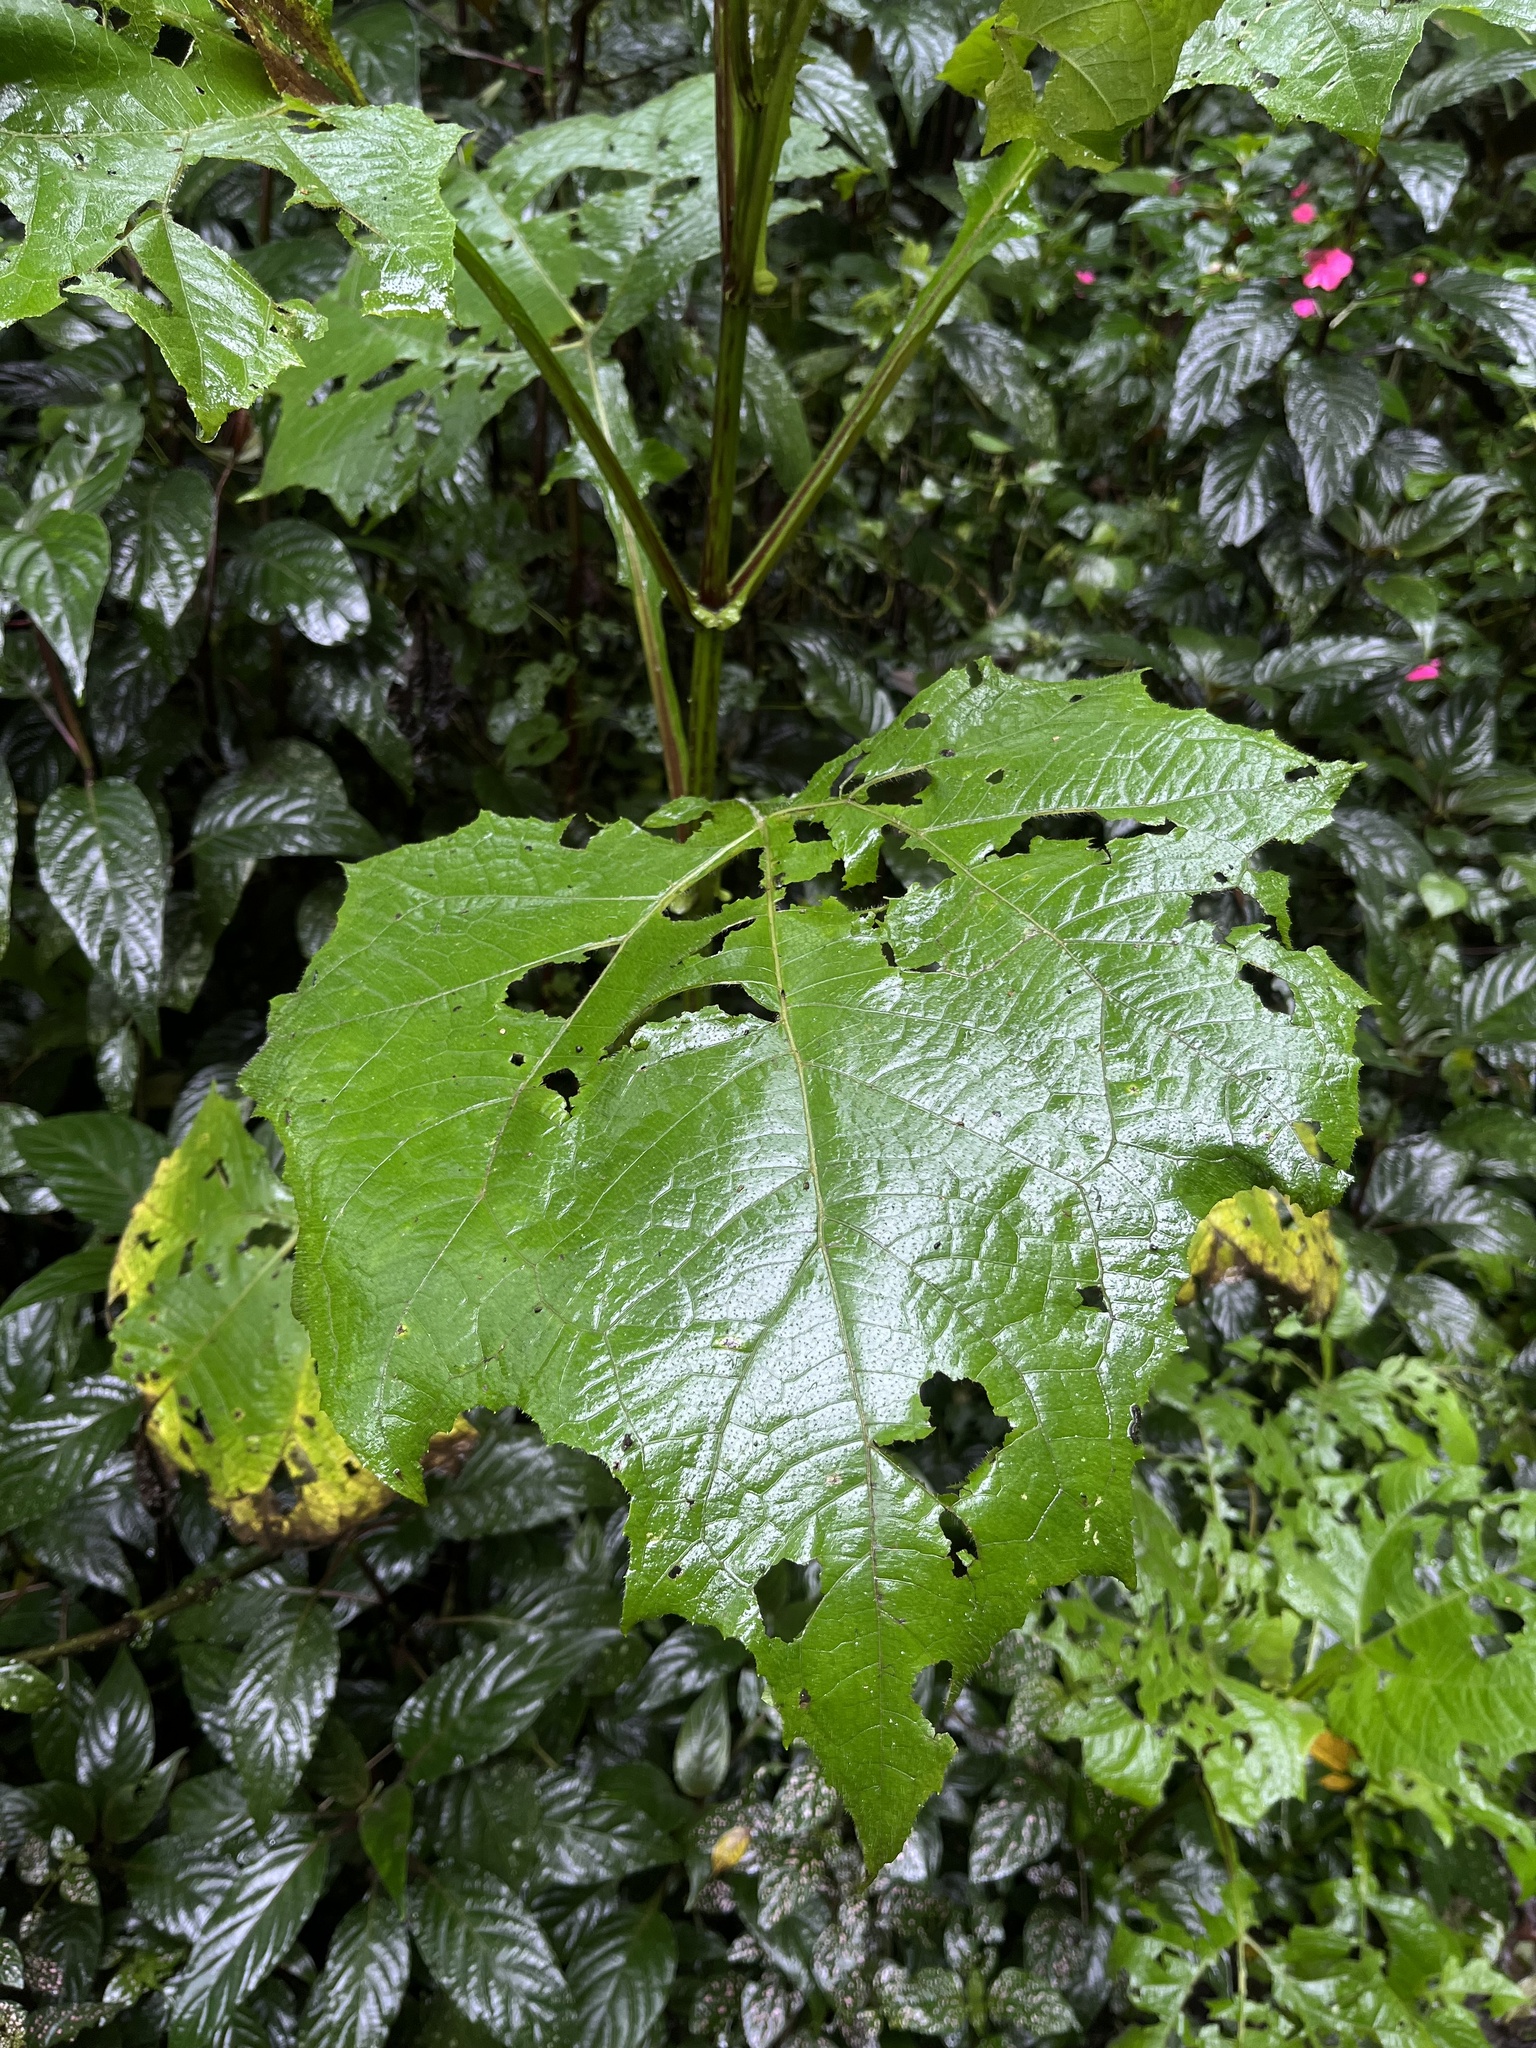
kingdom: Plantae
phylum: Tracheophyta
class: Magnoliopsida
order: Asterales
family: Asteraceae
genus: Smallanthus
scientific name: Smallanthus riparius
